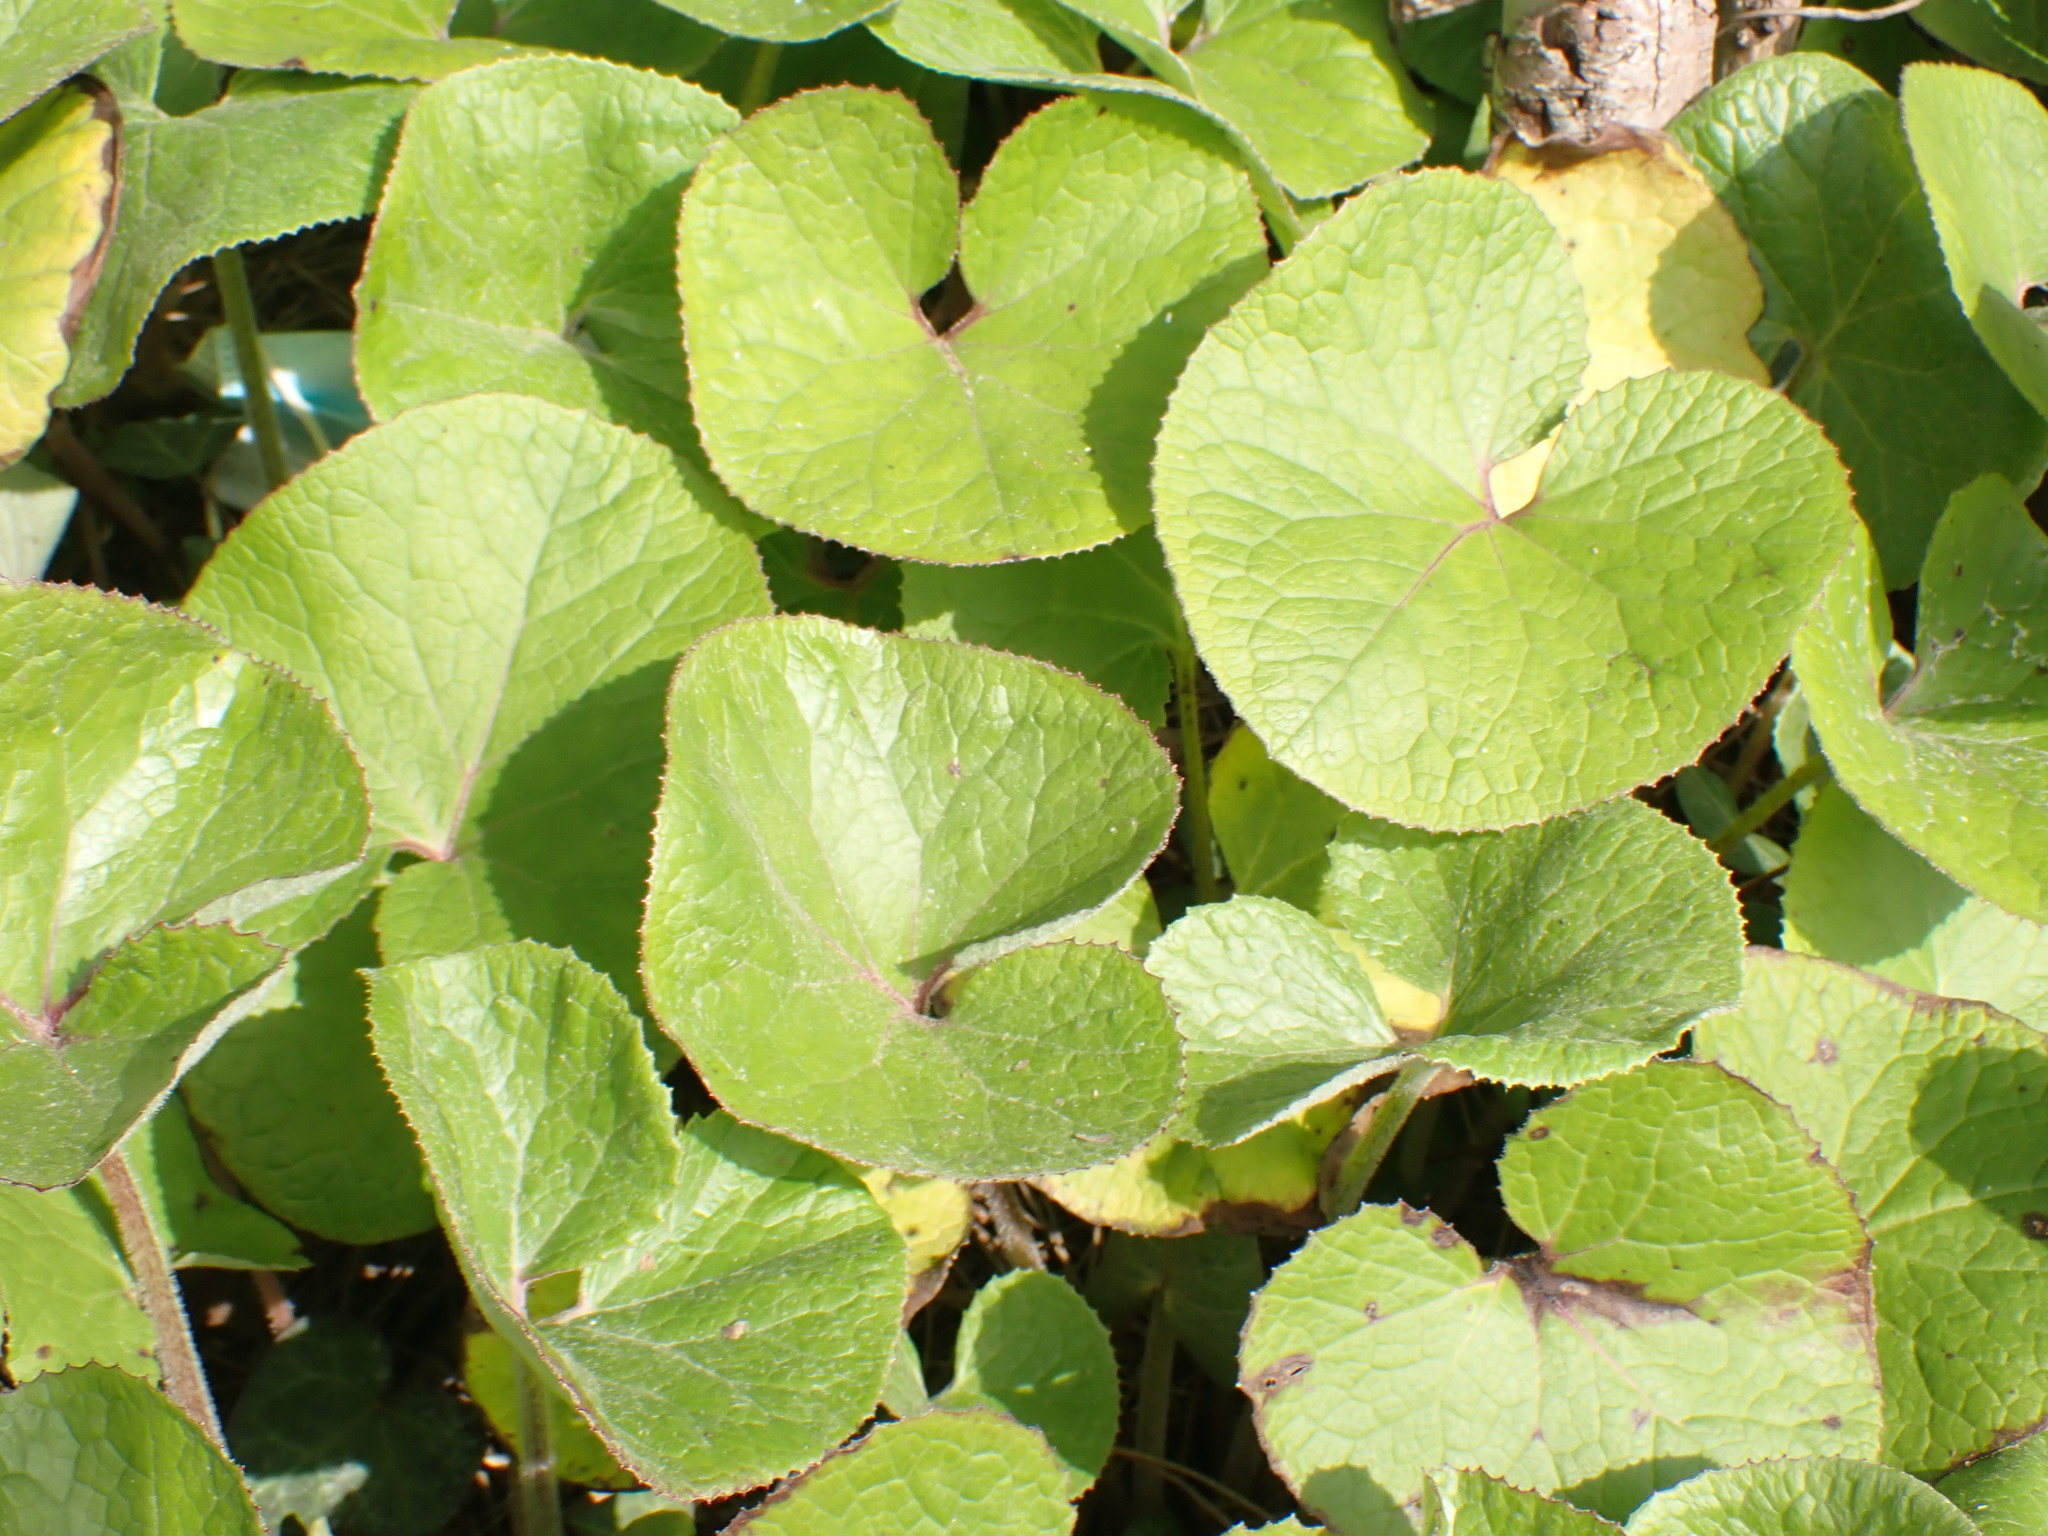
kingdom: Plantae
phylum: Tracheophyta
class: Magnoliopsida
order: Asterales
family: Asteraceae
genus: Petasites
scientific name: Petasites pyrenaicus
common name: Winter heliotrope
